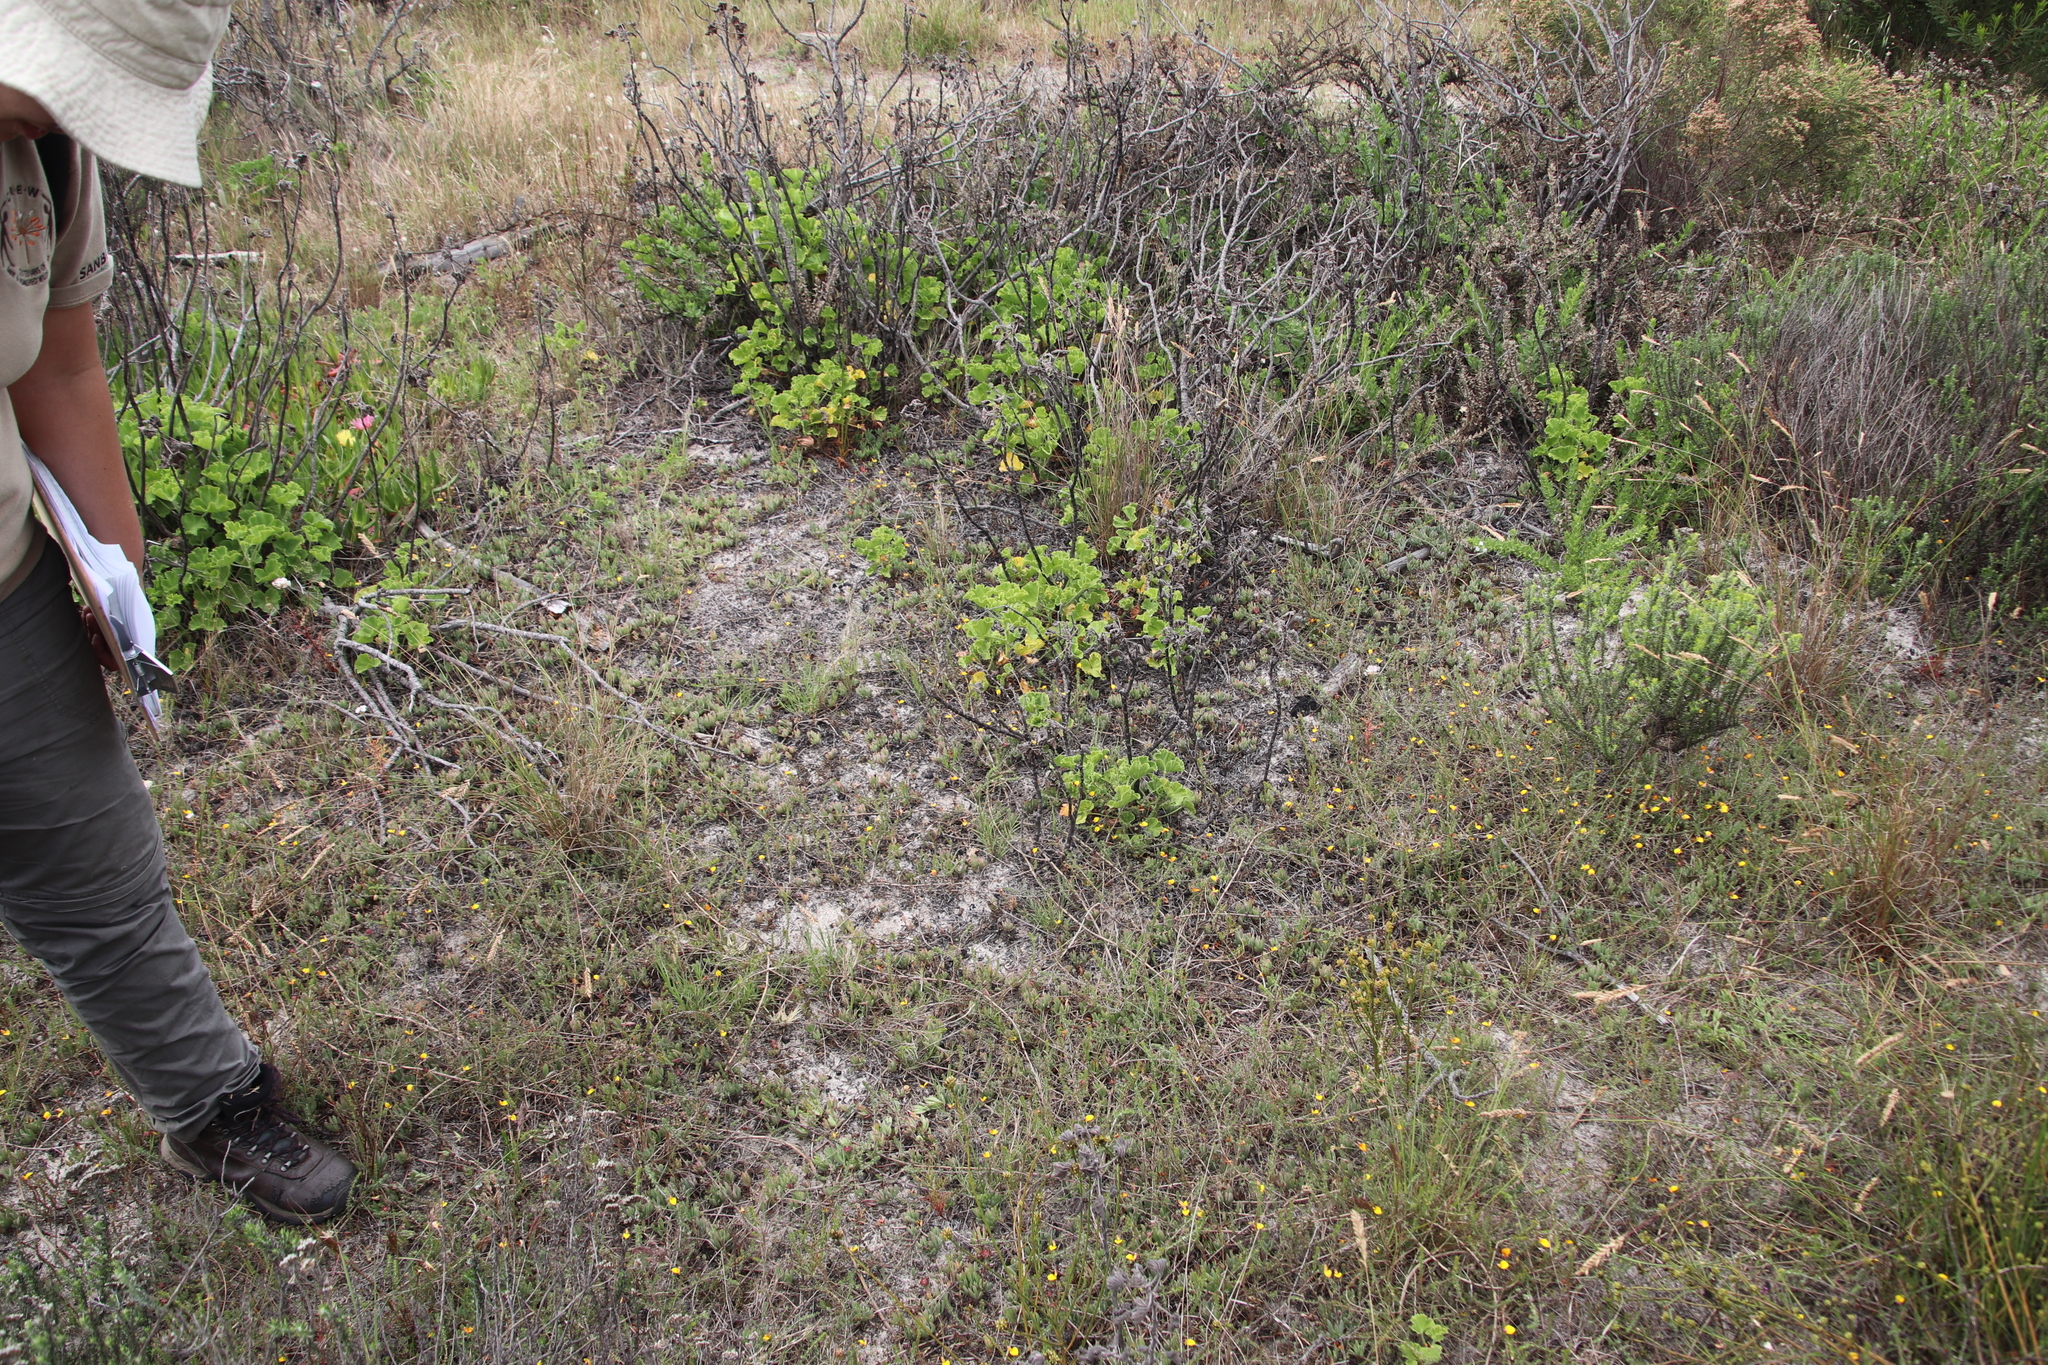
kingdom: Plantae
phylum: Tracheophyta
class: Magnoliopsida
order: Caryophyllales
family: Aizoaceae
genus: Lampranthus
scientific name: Lampranthus reptans
